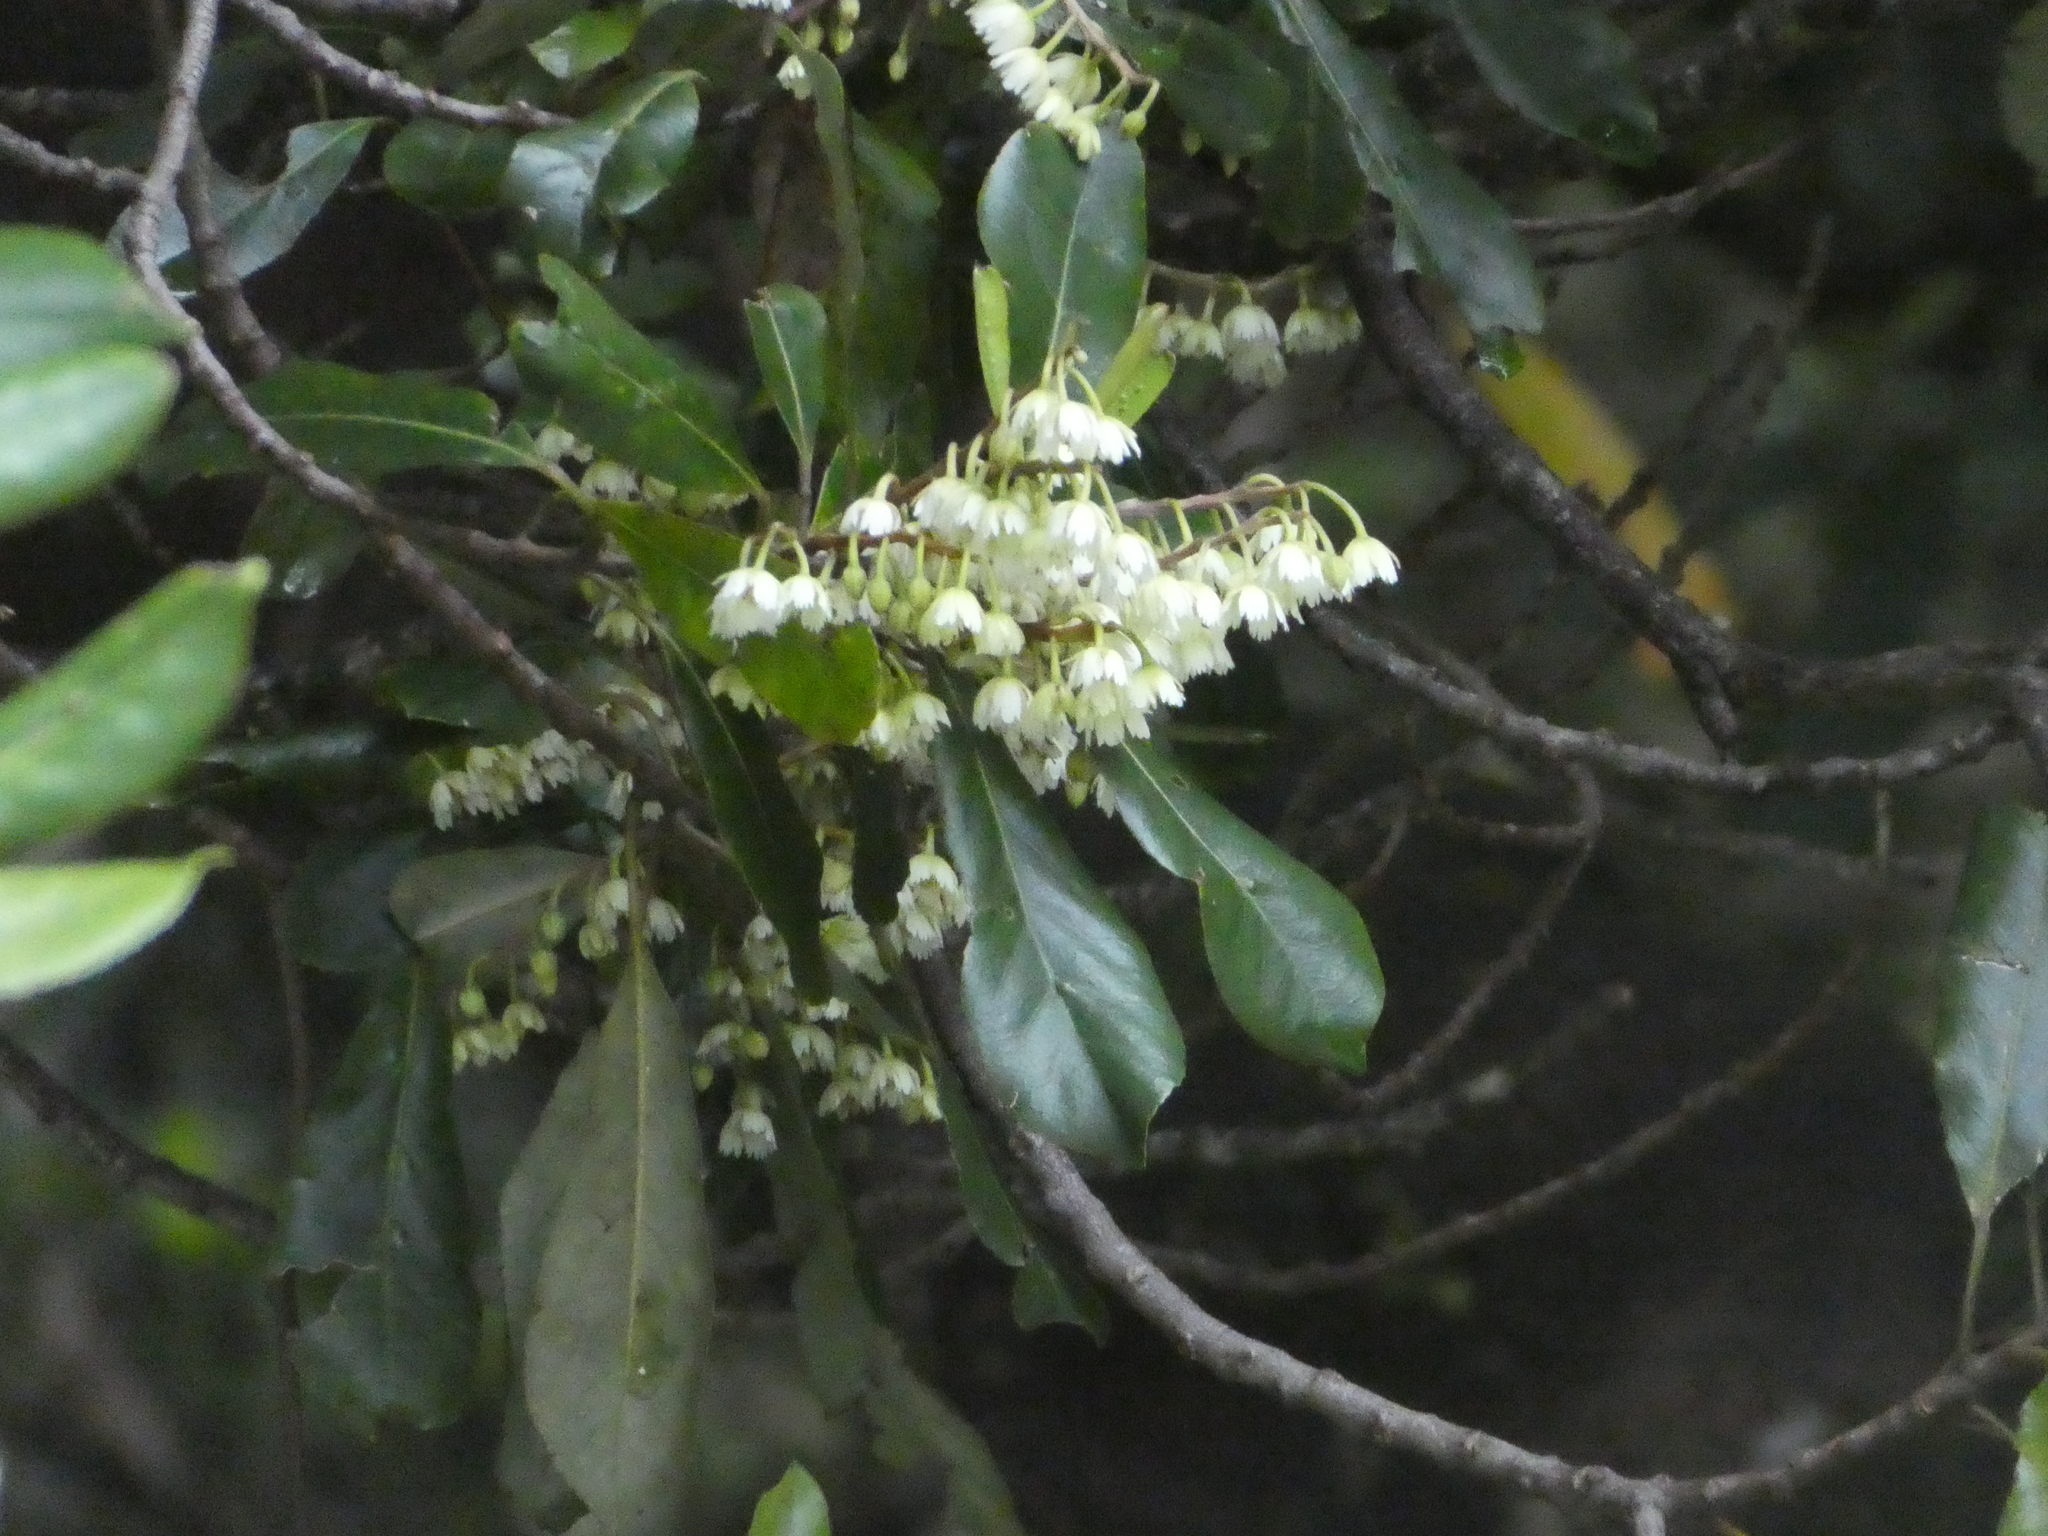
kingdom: Plantae
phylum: Tracheophyta
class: Magnoliopsida
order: Oxalidales
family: Elaeocarpaceae
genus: Elaeocarpus
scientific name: Elaeocarpus dentatus
